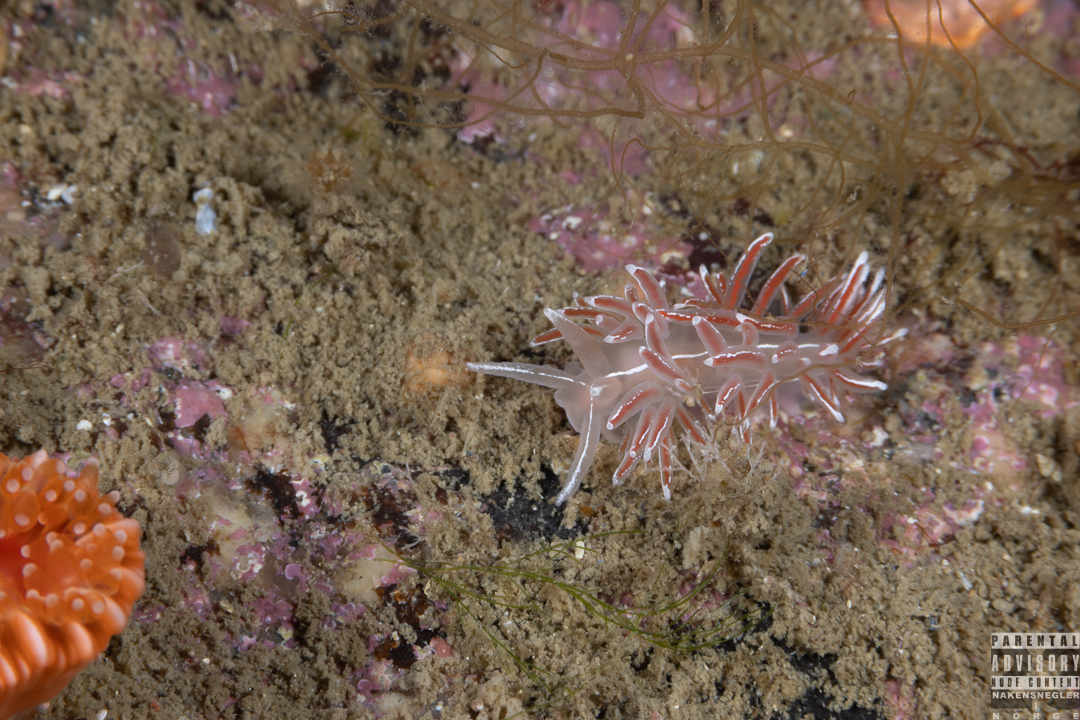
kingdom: Animalia
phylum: Mollusca
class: Gastropoda
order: Nudibranchia
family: Coryphellidae
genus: Coryphella
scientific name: Coryphella lineata
